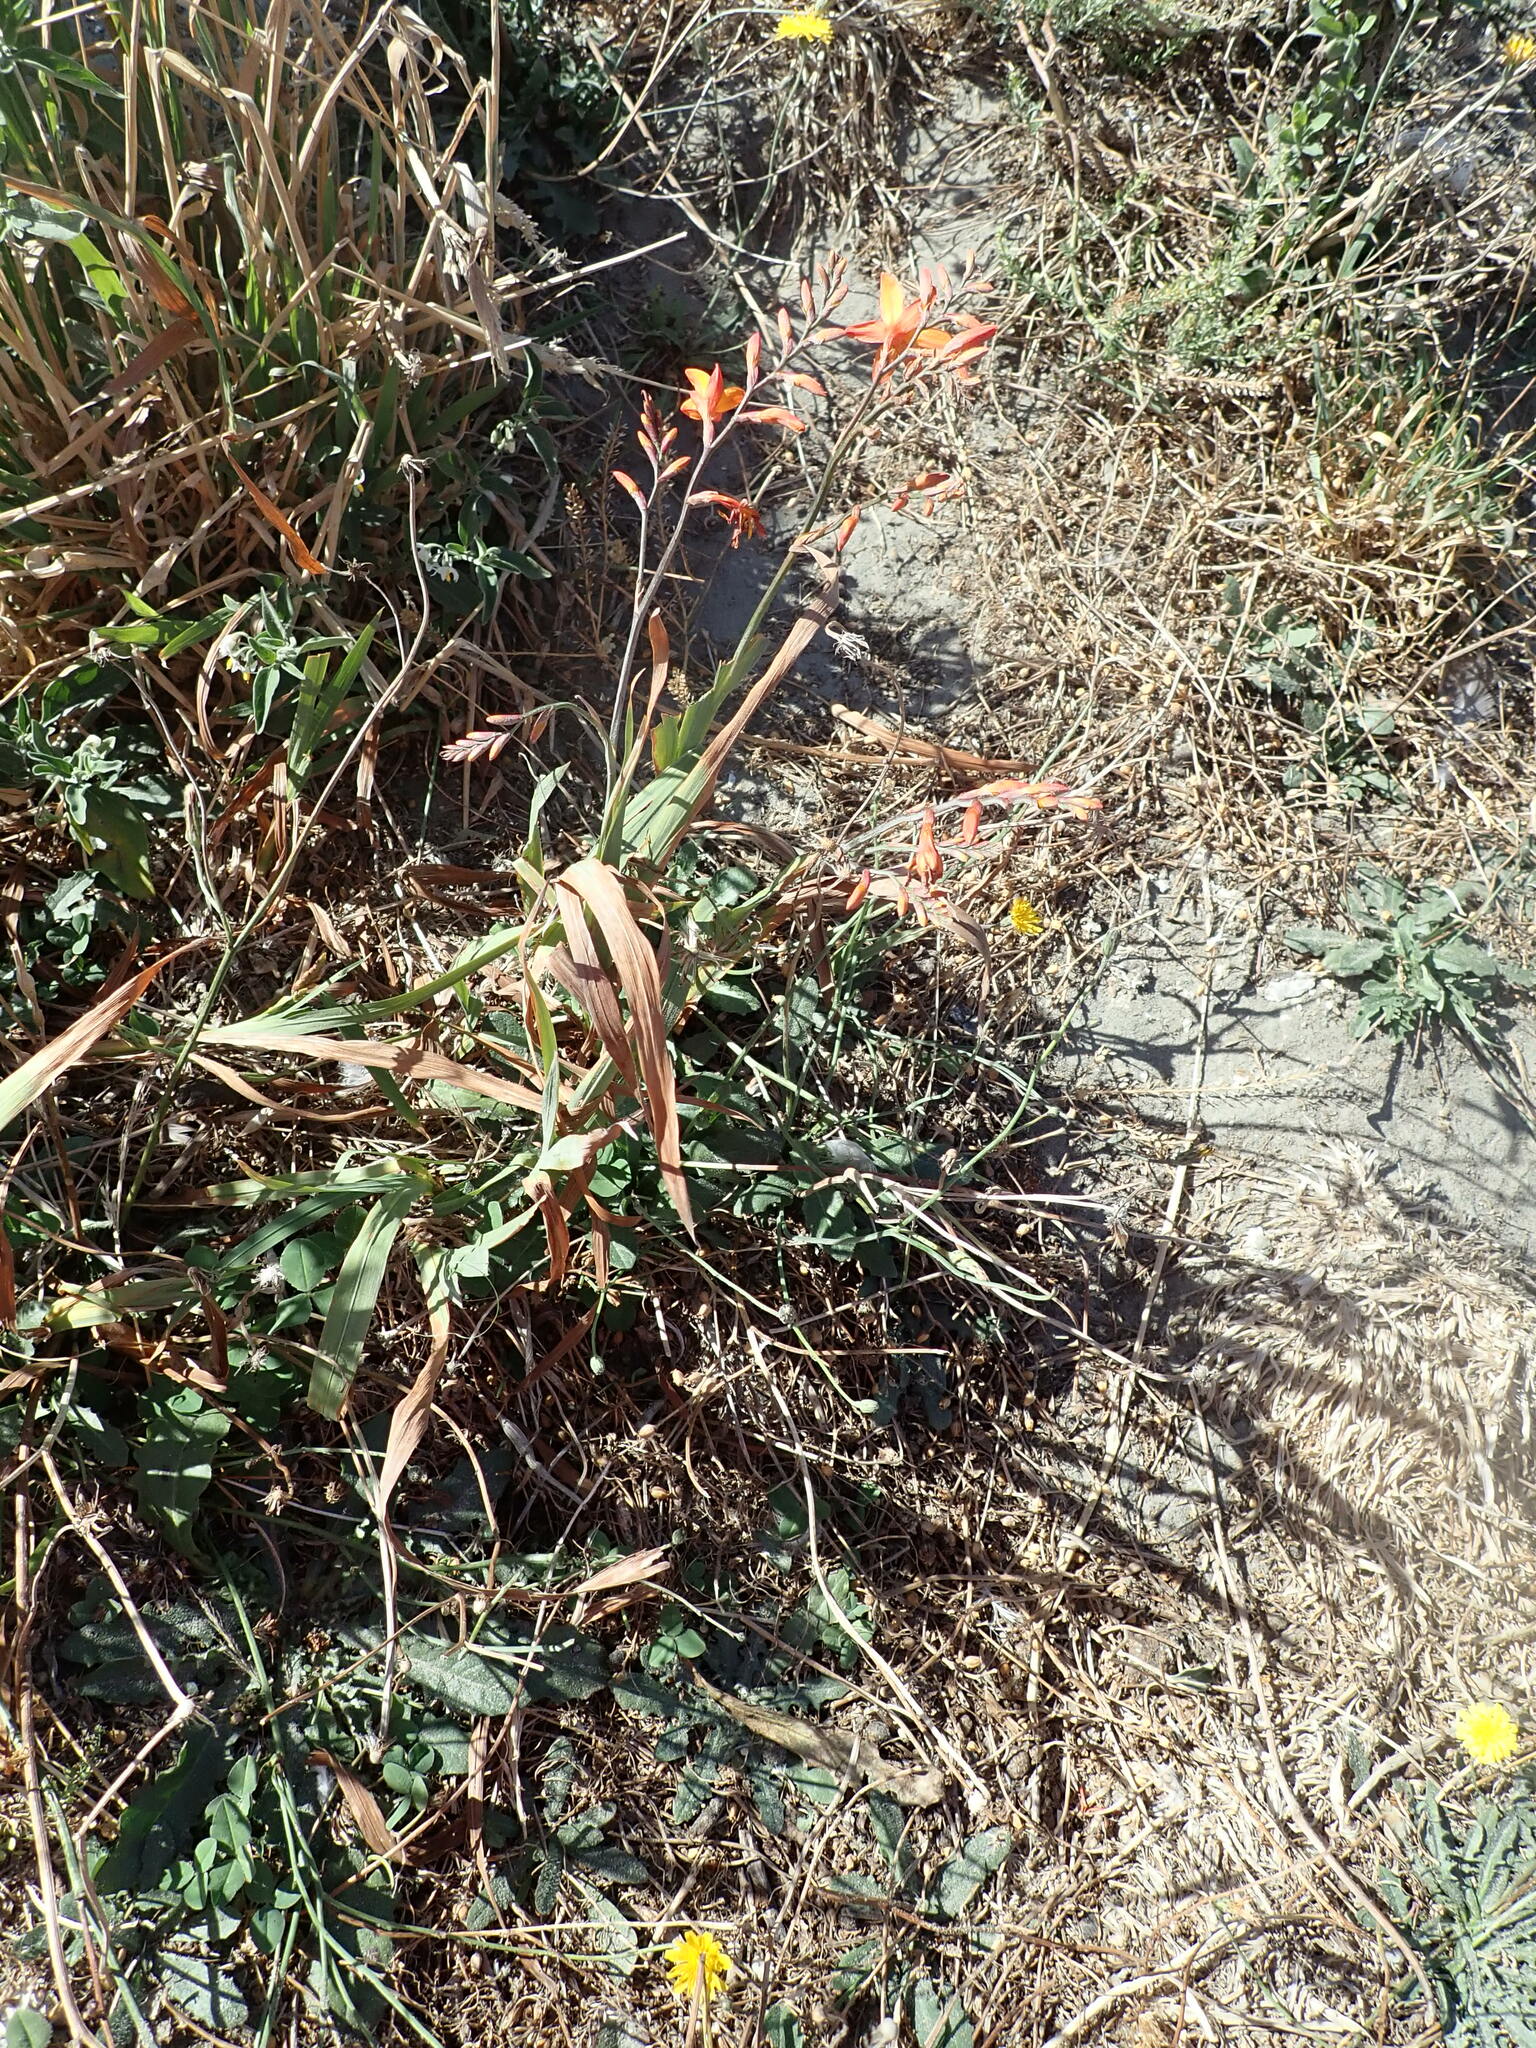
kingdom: Plantae
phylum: Tracheophyta
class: Liliopsida
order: Asparagales
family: Iridaceae
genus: Crocosmia
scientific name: Crocosmia crocosmiiflora
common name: Montbretia
